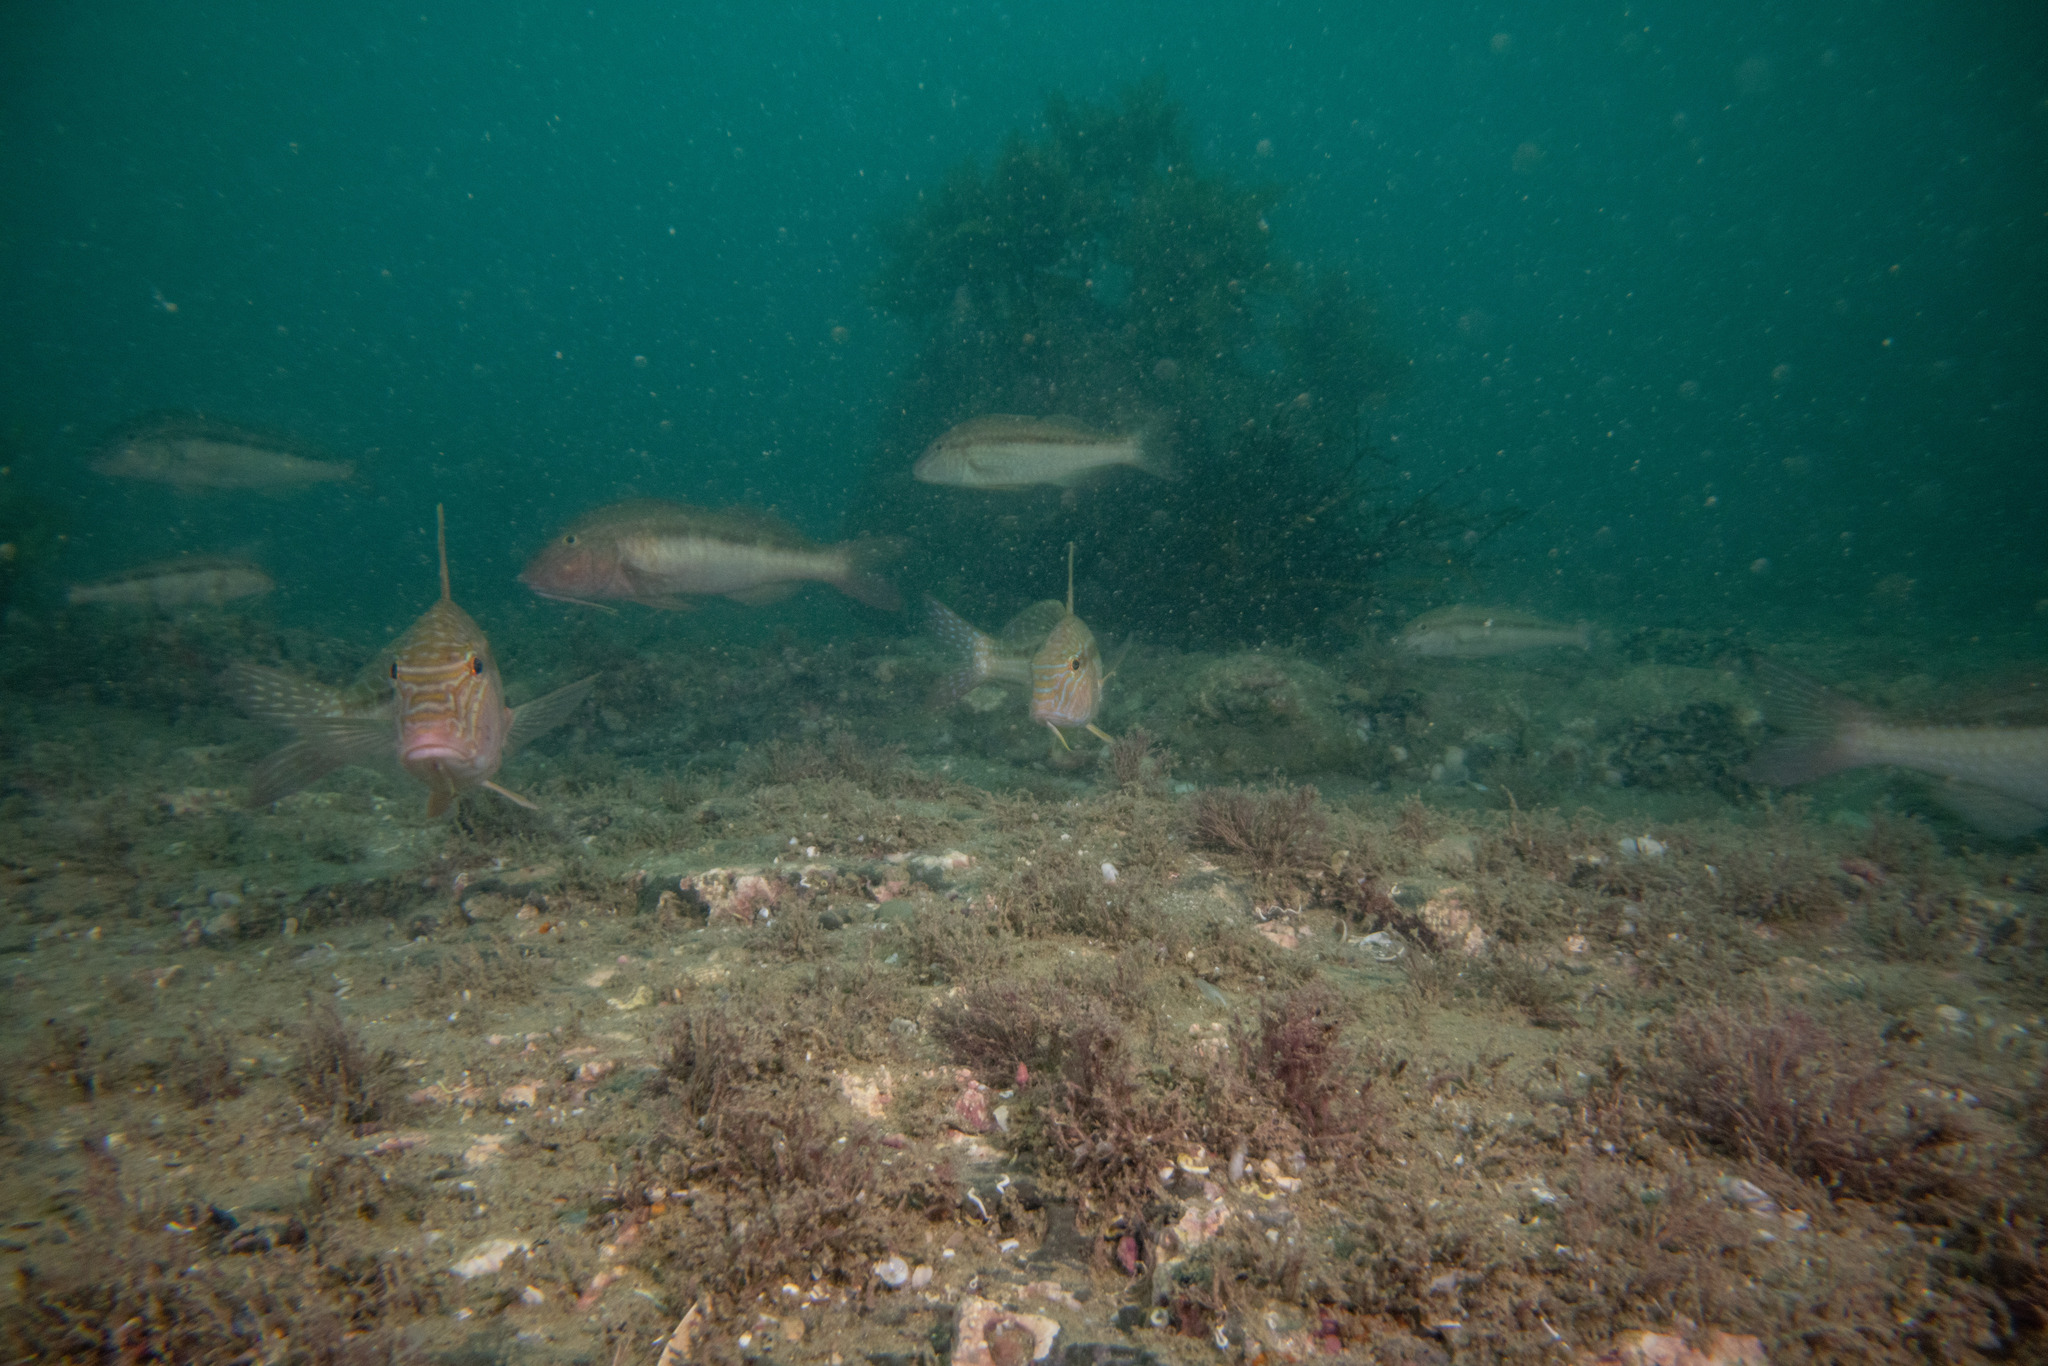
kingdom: Animalia
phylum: Chordata
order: Perciformes
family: Mullidae
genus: Upeneichthys
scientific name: Upeneichthys lineatus
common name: Red mullet
